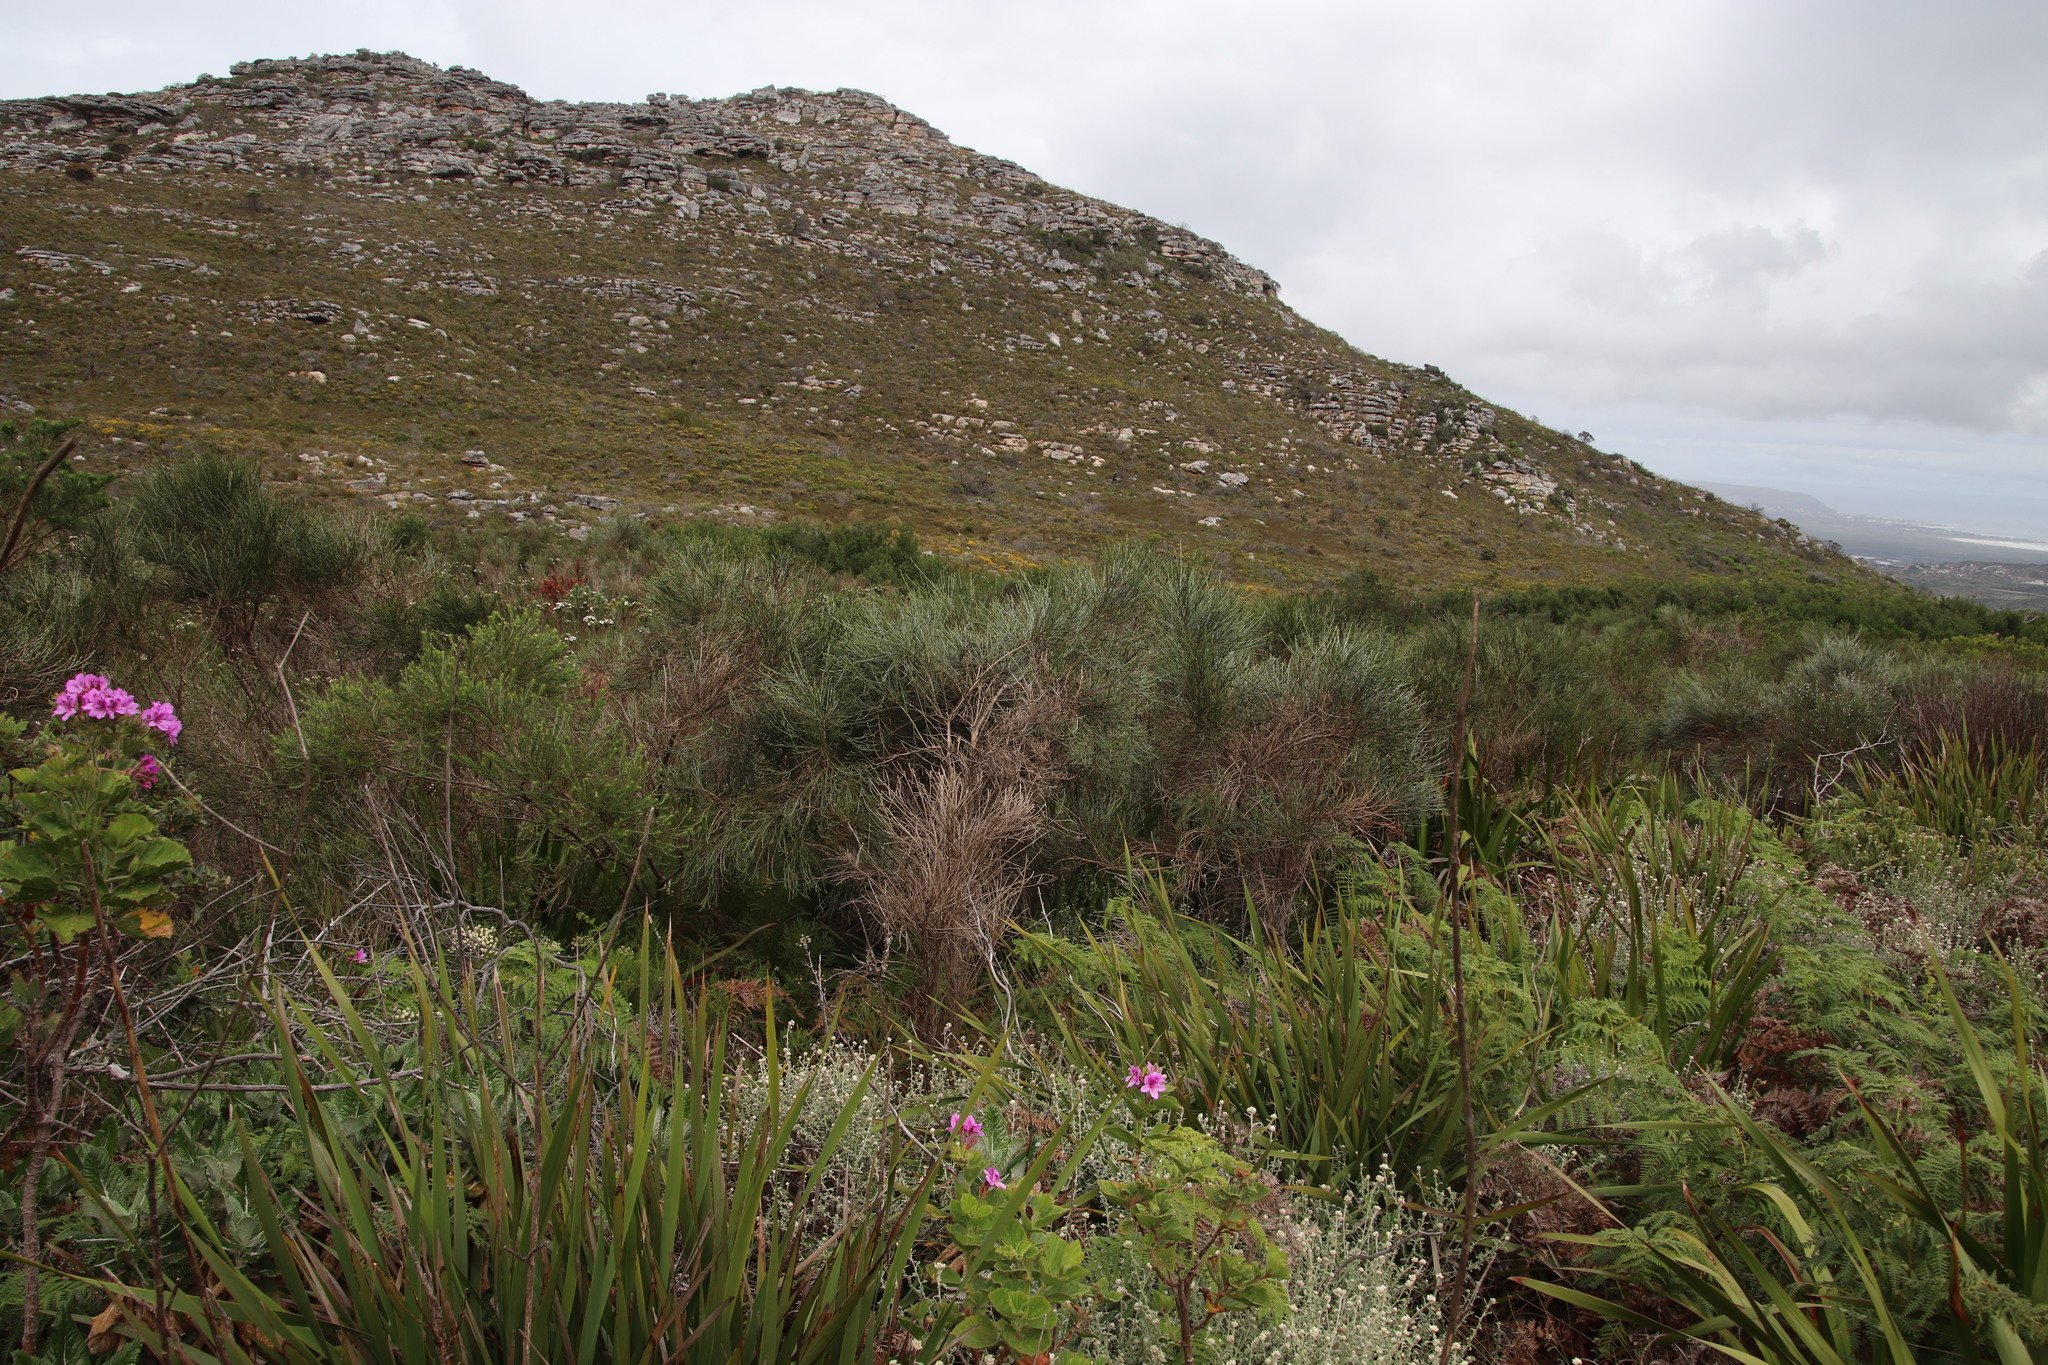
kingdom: Plantae
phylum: Tracheophyta
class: Magnoliopsida
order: Fabales
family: Fabaceae
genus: Psoralea
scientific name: Psoralea aphylla
